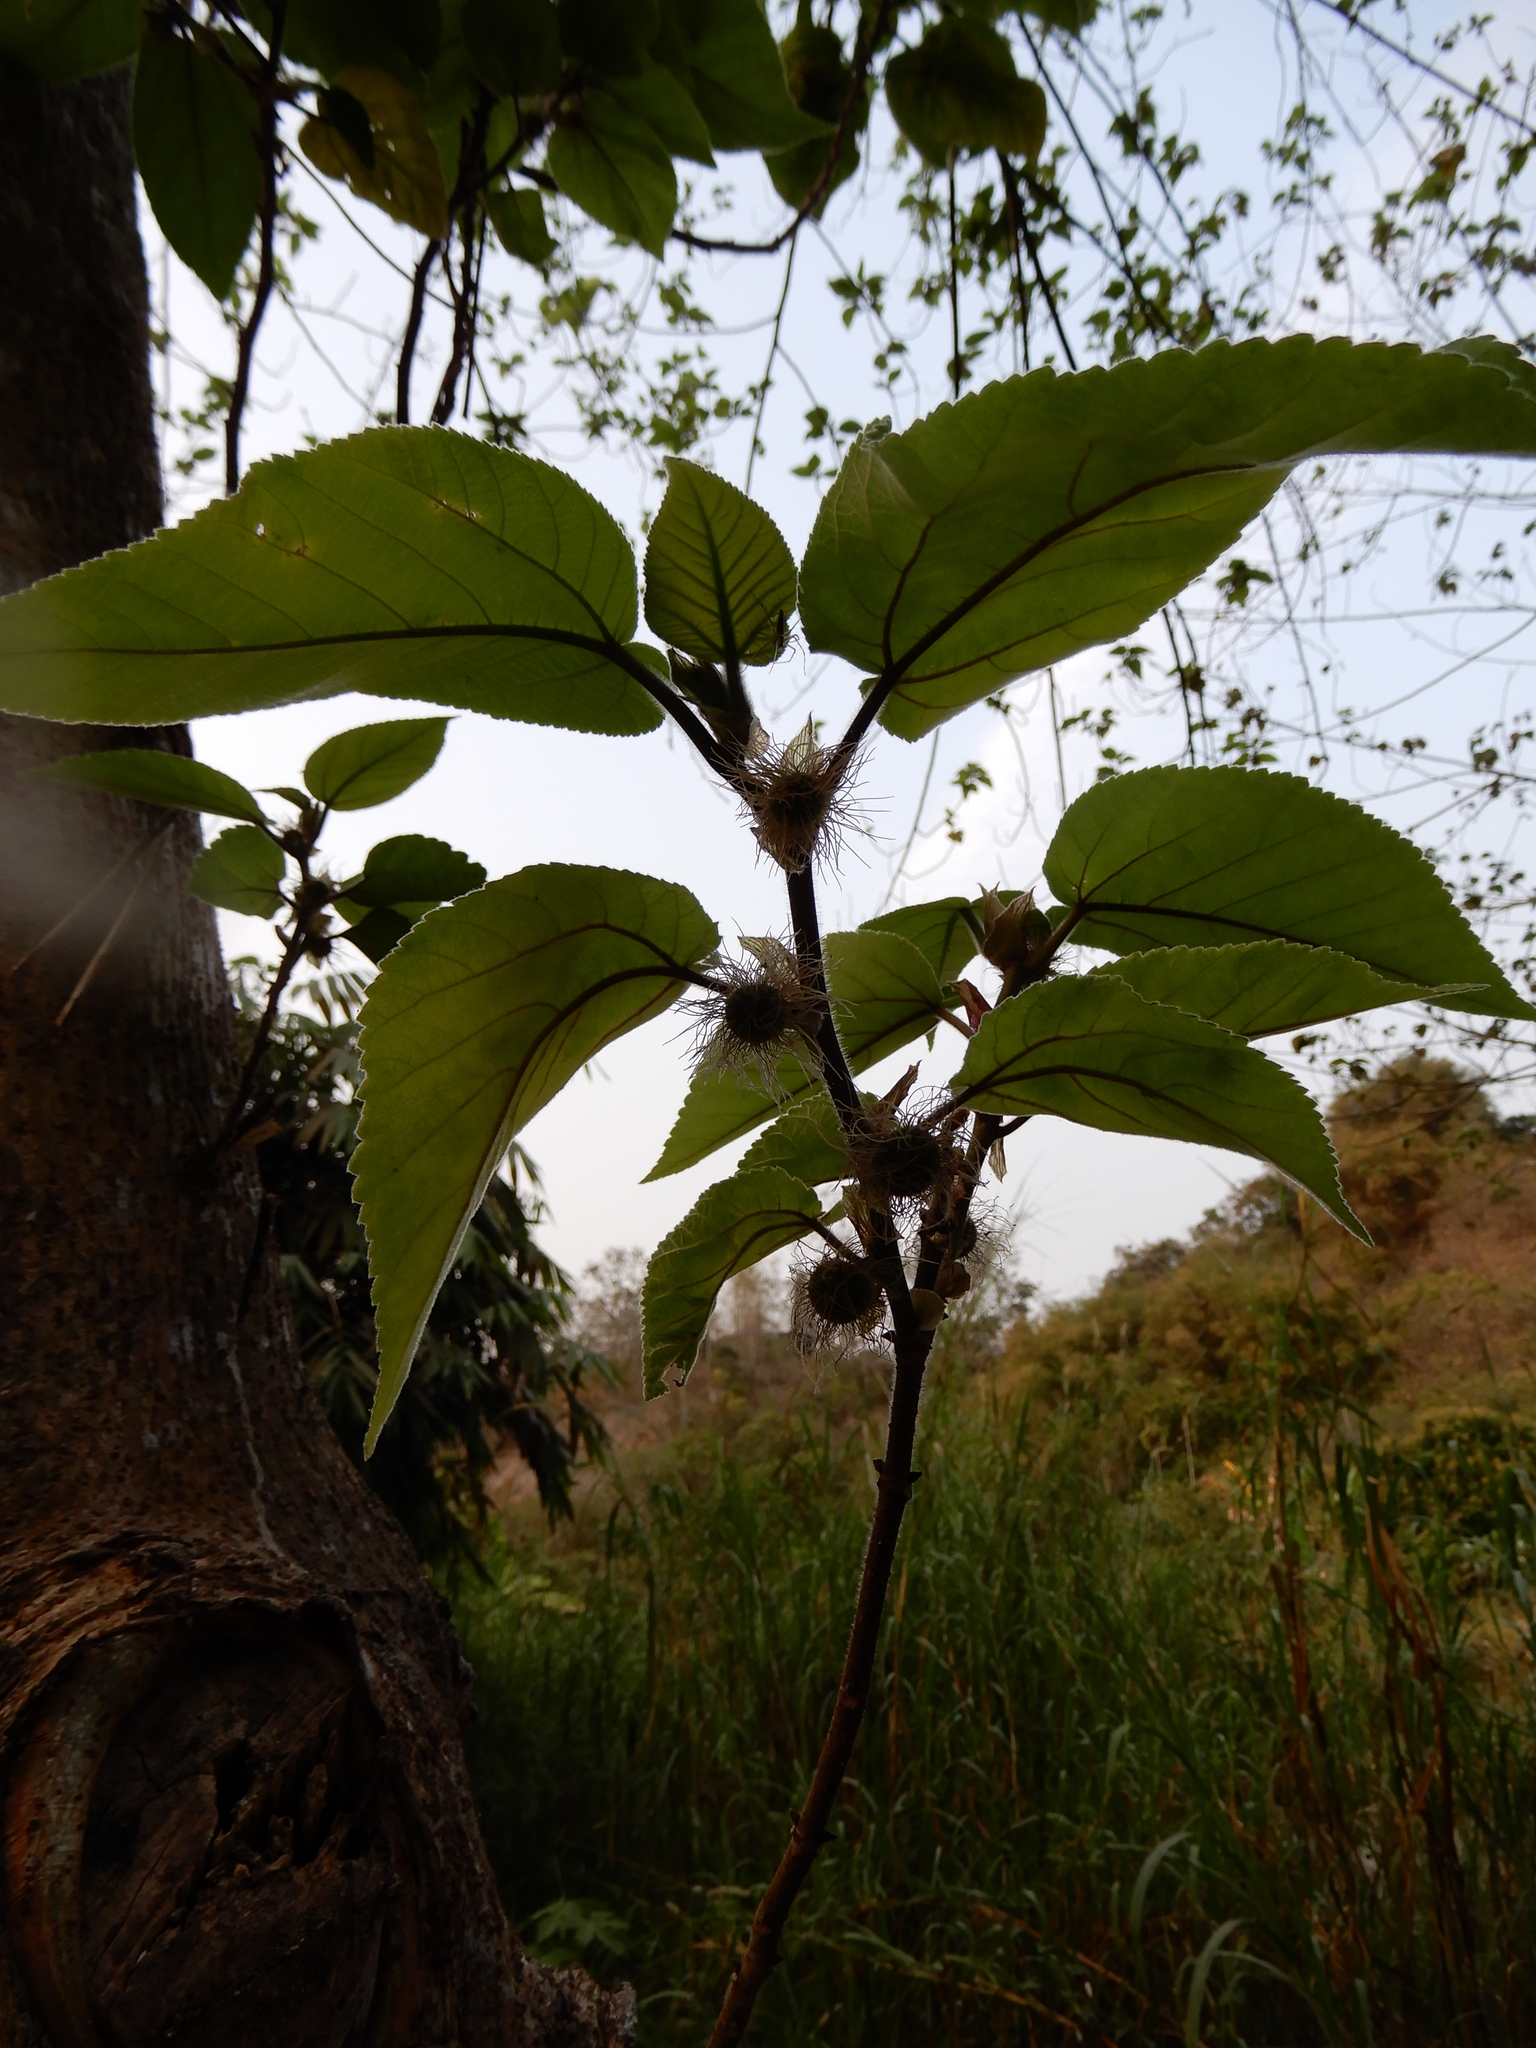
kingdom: Plantae
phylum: Tracheophyta
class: Magnoliopsida
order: Rosales
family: Moraceae
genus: Broussonetia
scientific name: Broussonetia papyrifera
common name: Paper mulberry
